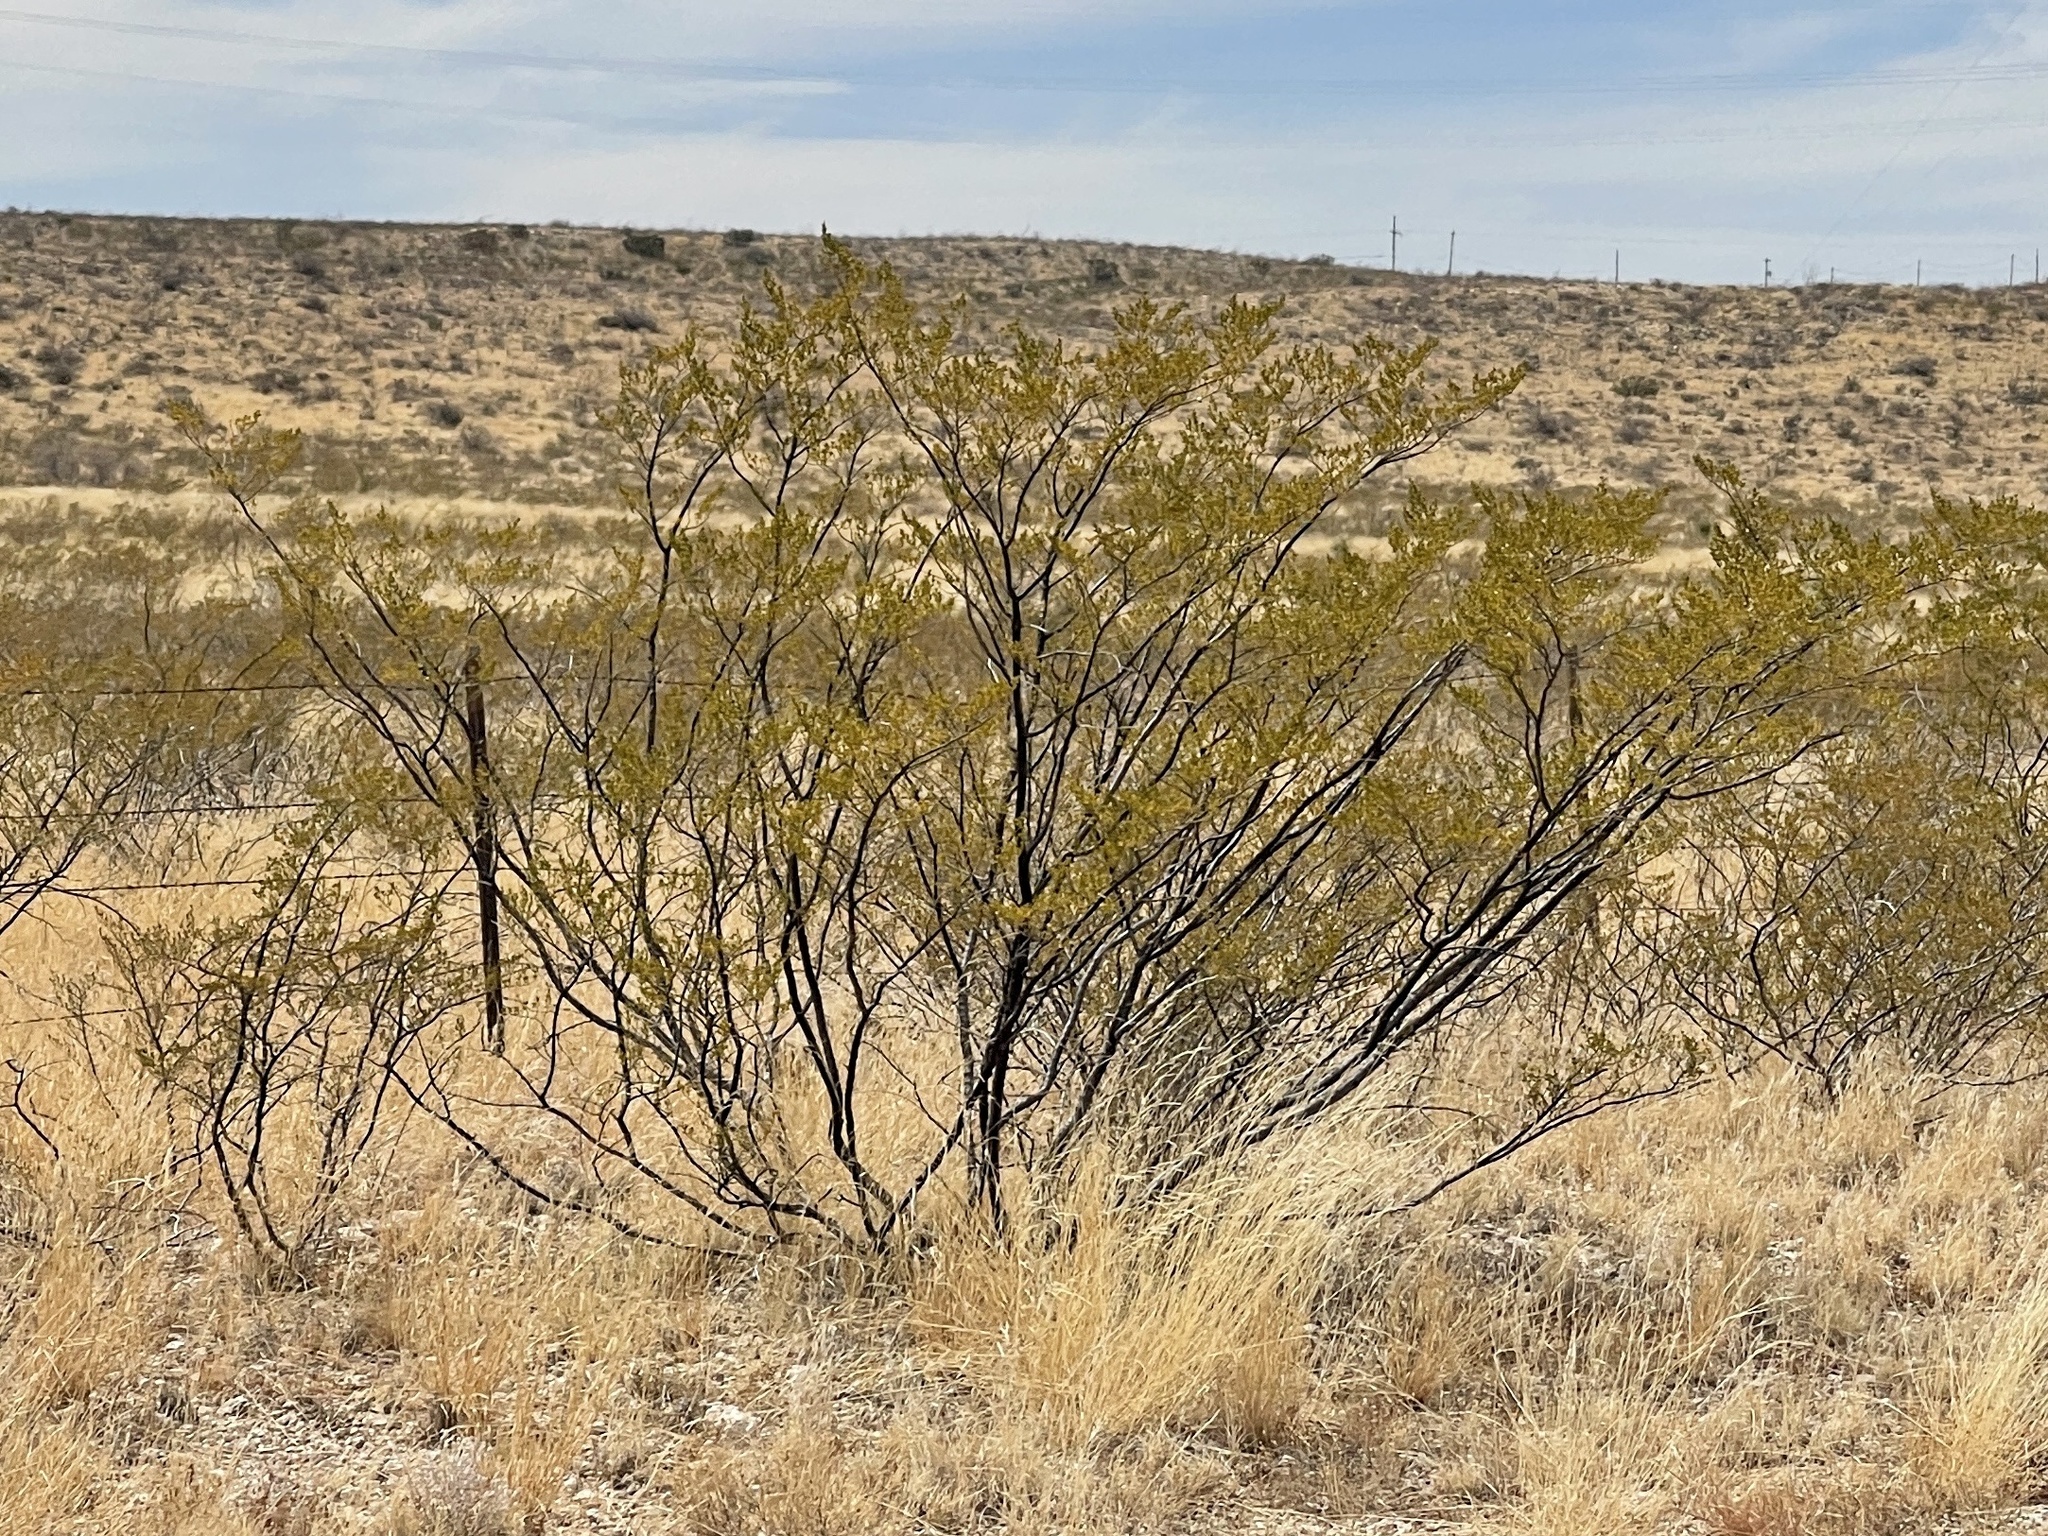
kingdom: Plantae
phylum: Tracheophyta
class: Magnoliopsida
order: Zygophyllales
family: Zygophyllaceae
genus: Larrea
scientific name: Larrea tridentata
